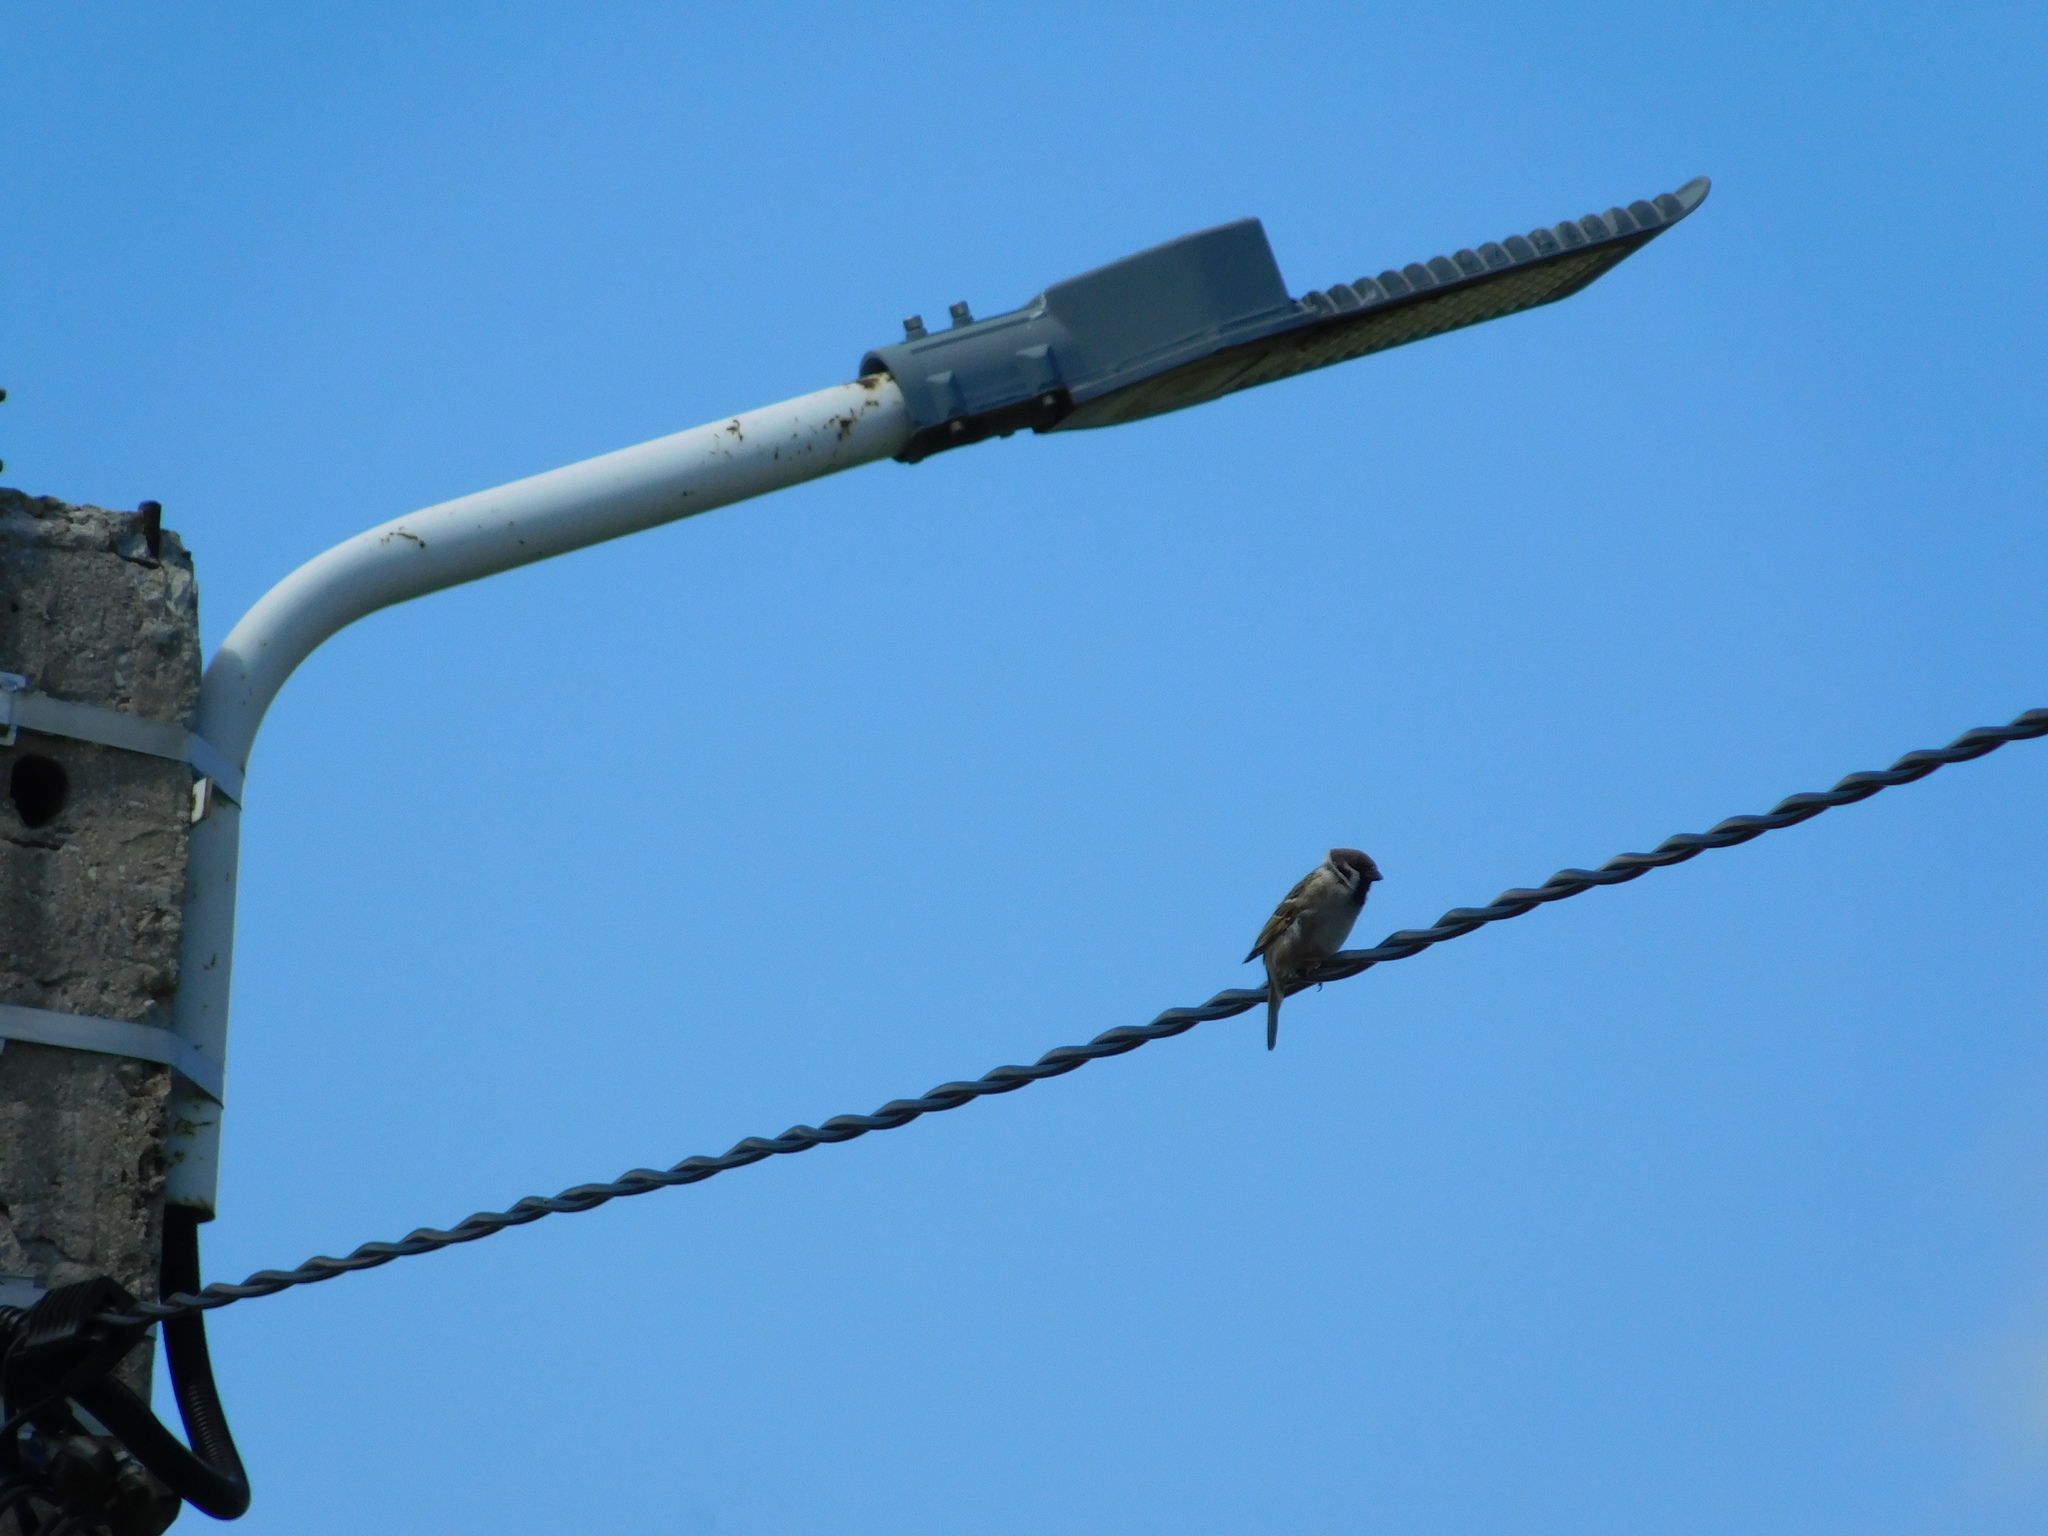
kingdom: Animalia
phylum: Chordata
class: Aves
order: Passeriformes
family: Passeridae
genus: Passer
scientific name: Passer montanus
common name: Eurasian tree sparrow
